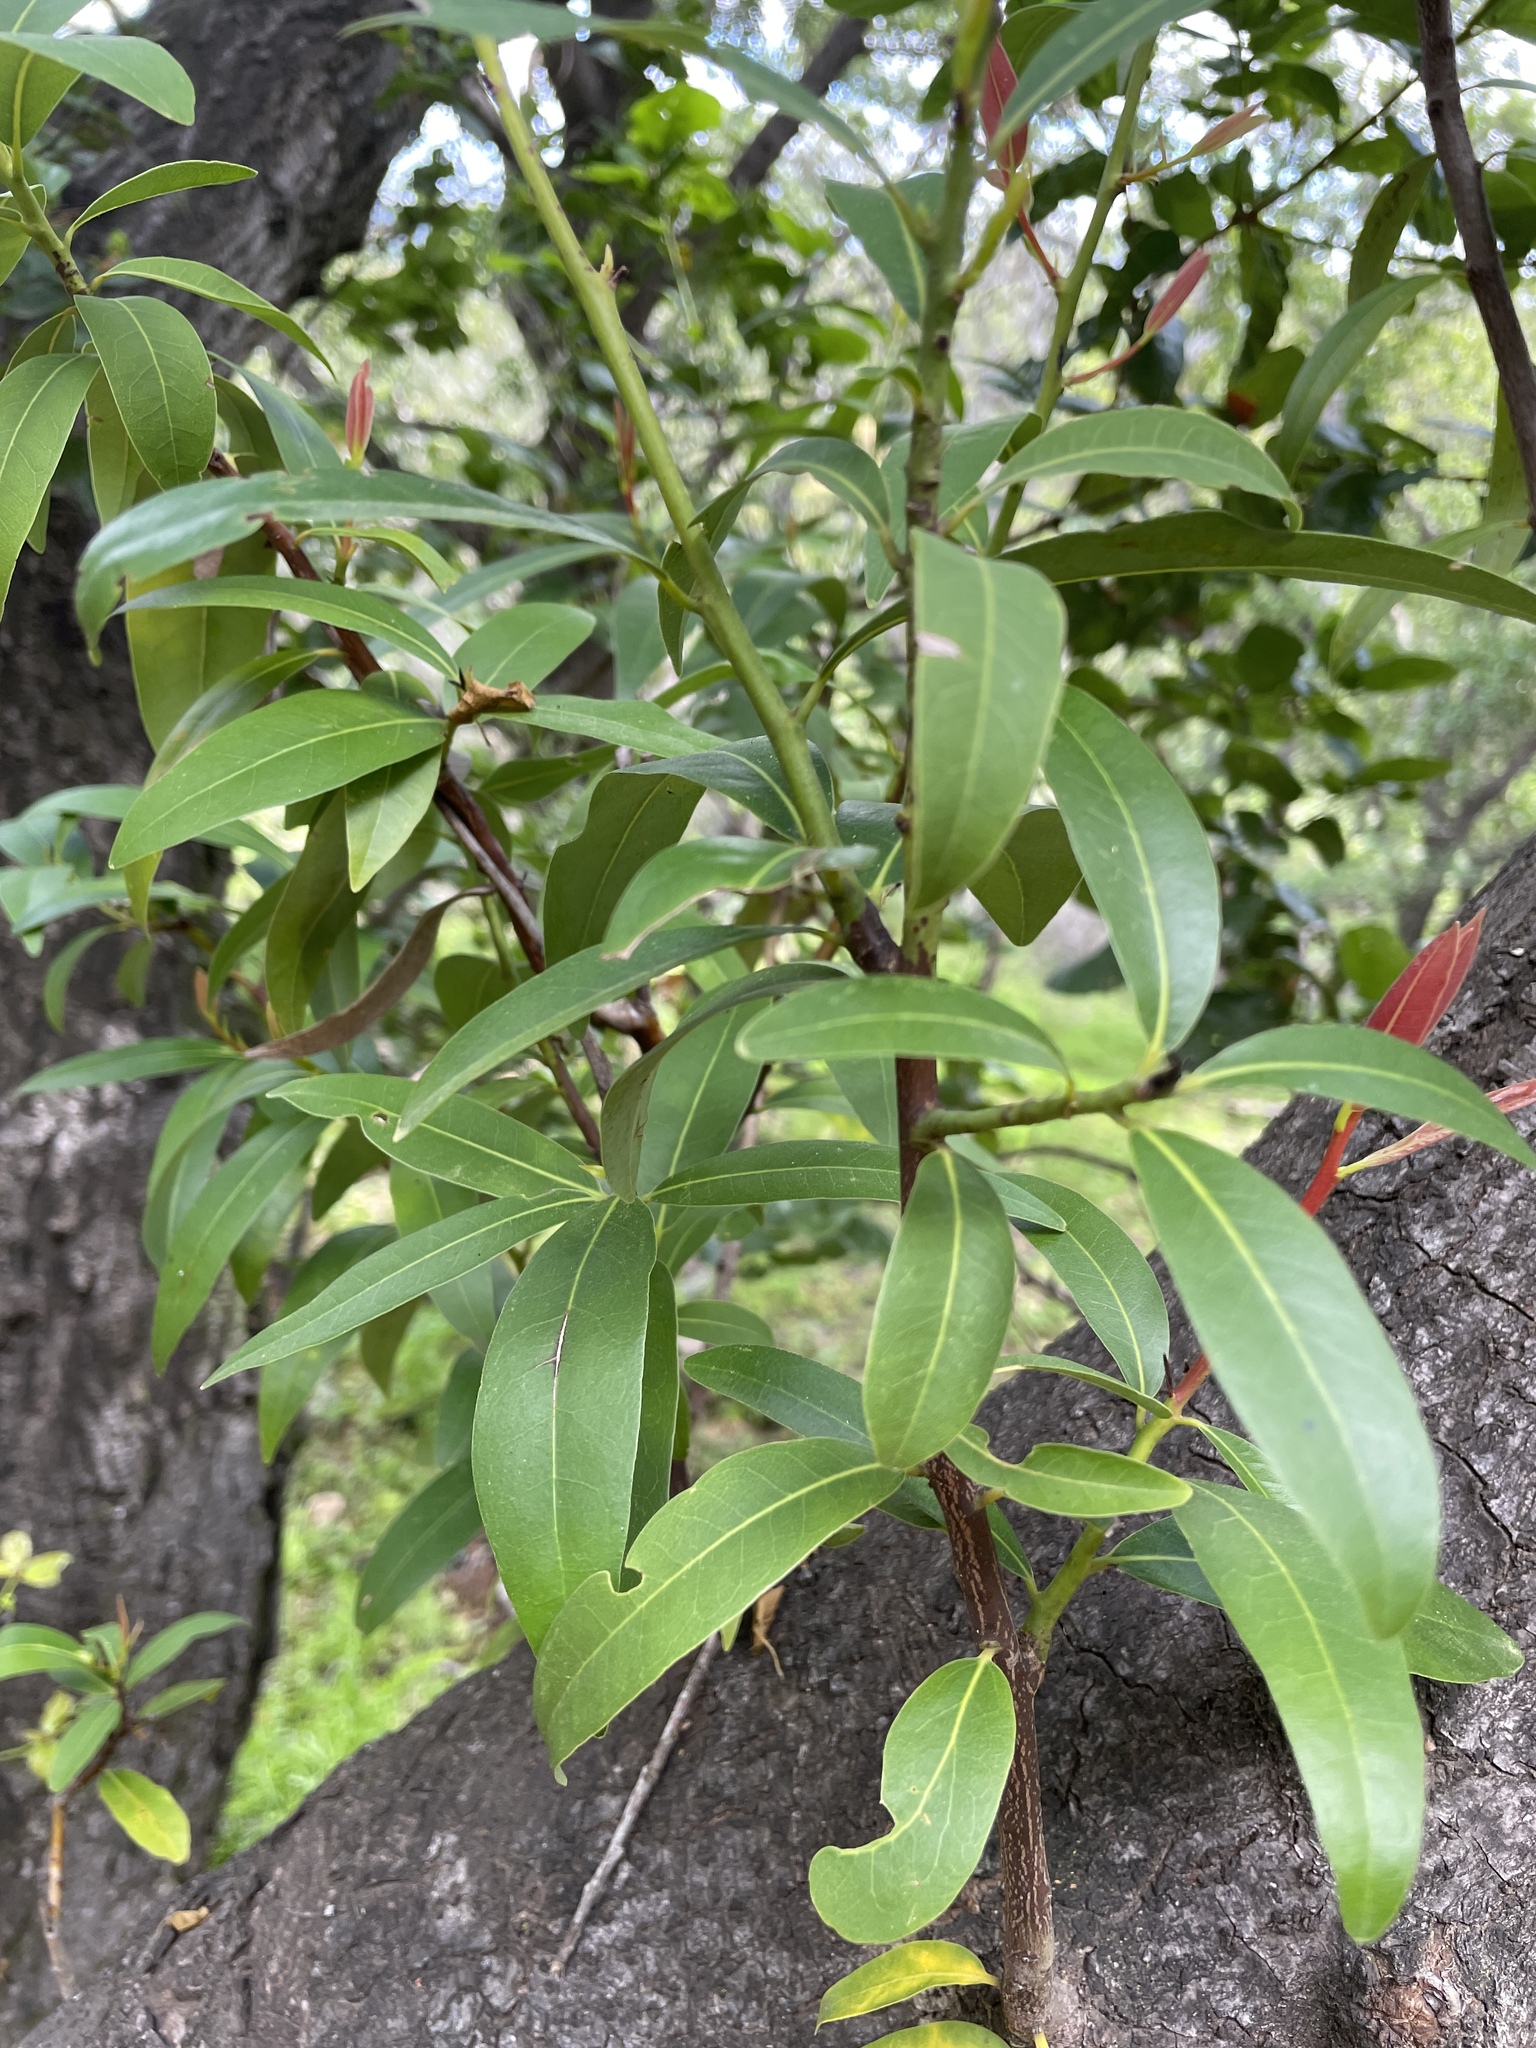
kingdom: Plantae
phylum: Tracheophyta
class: Magnoliopsida
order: Laurales
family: Lauraceae
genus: Umbellularia
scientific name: Umbellularia californica
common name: California bay
